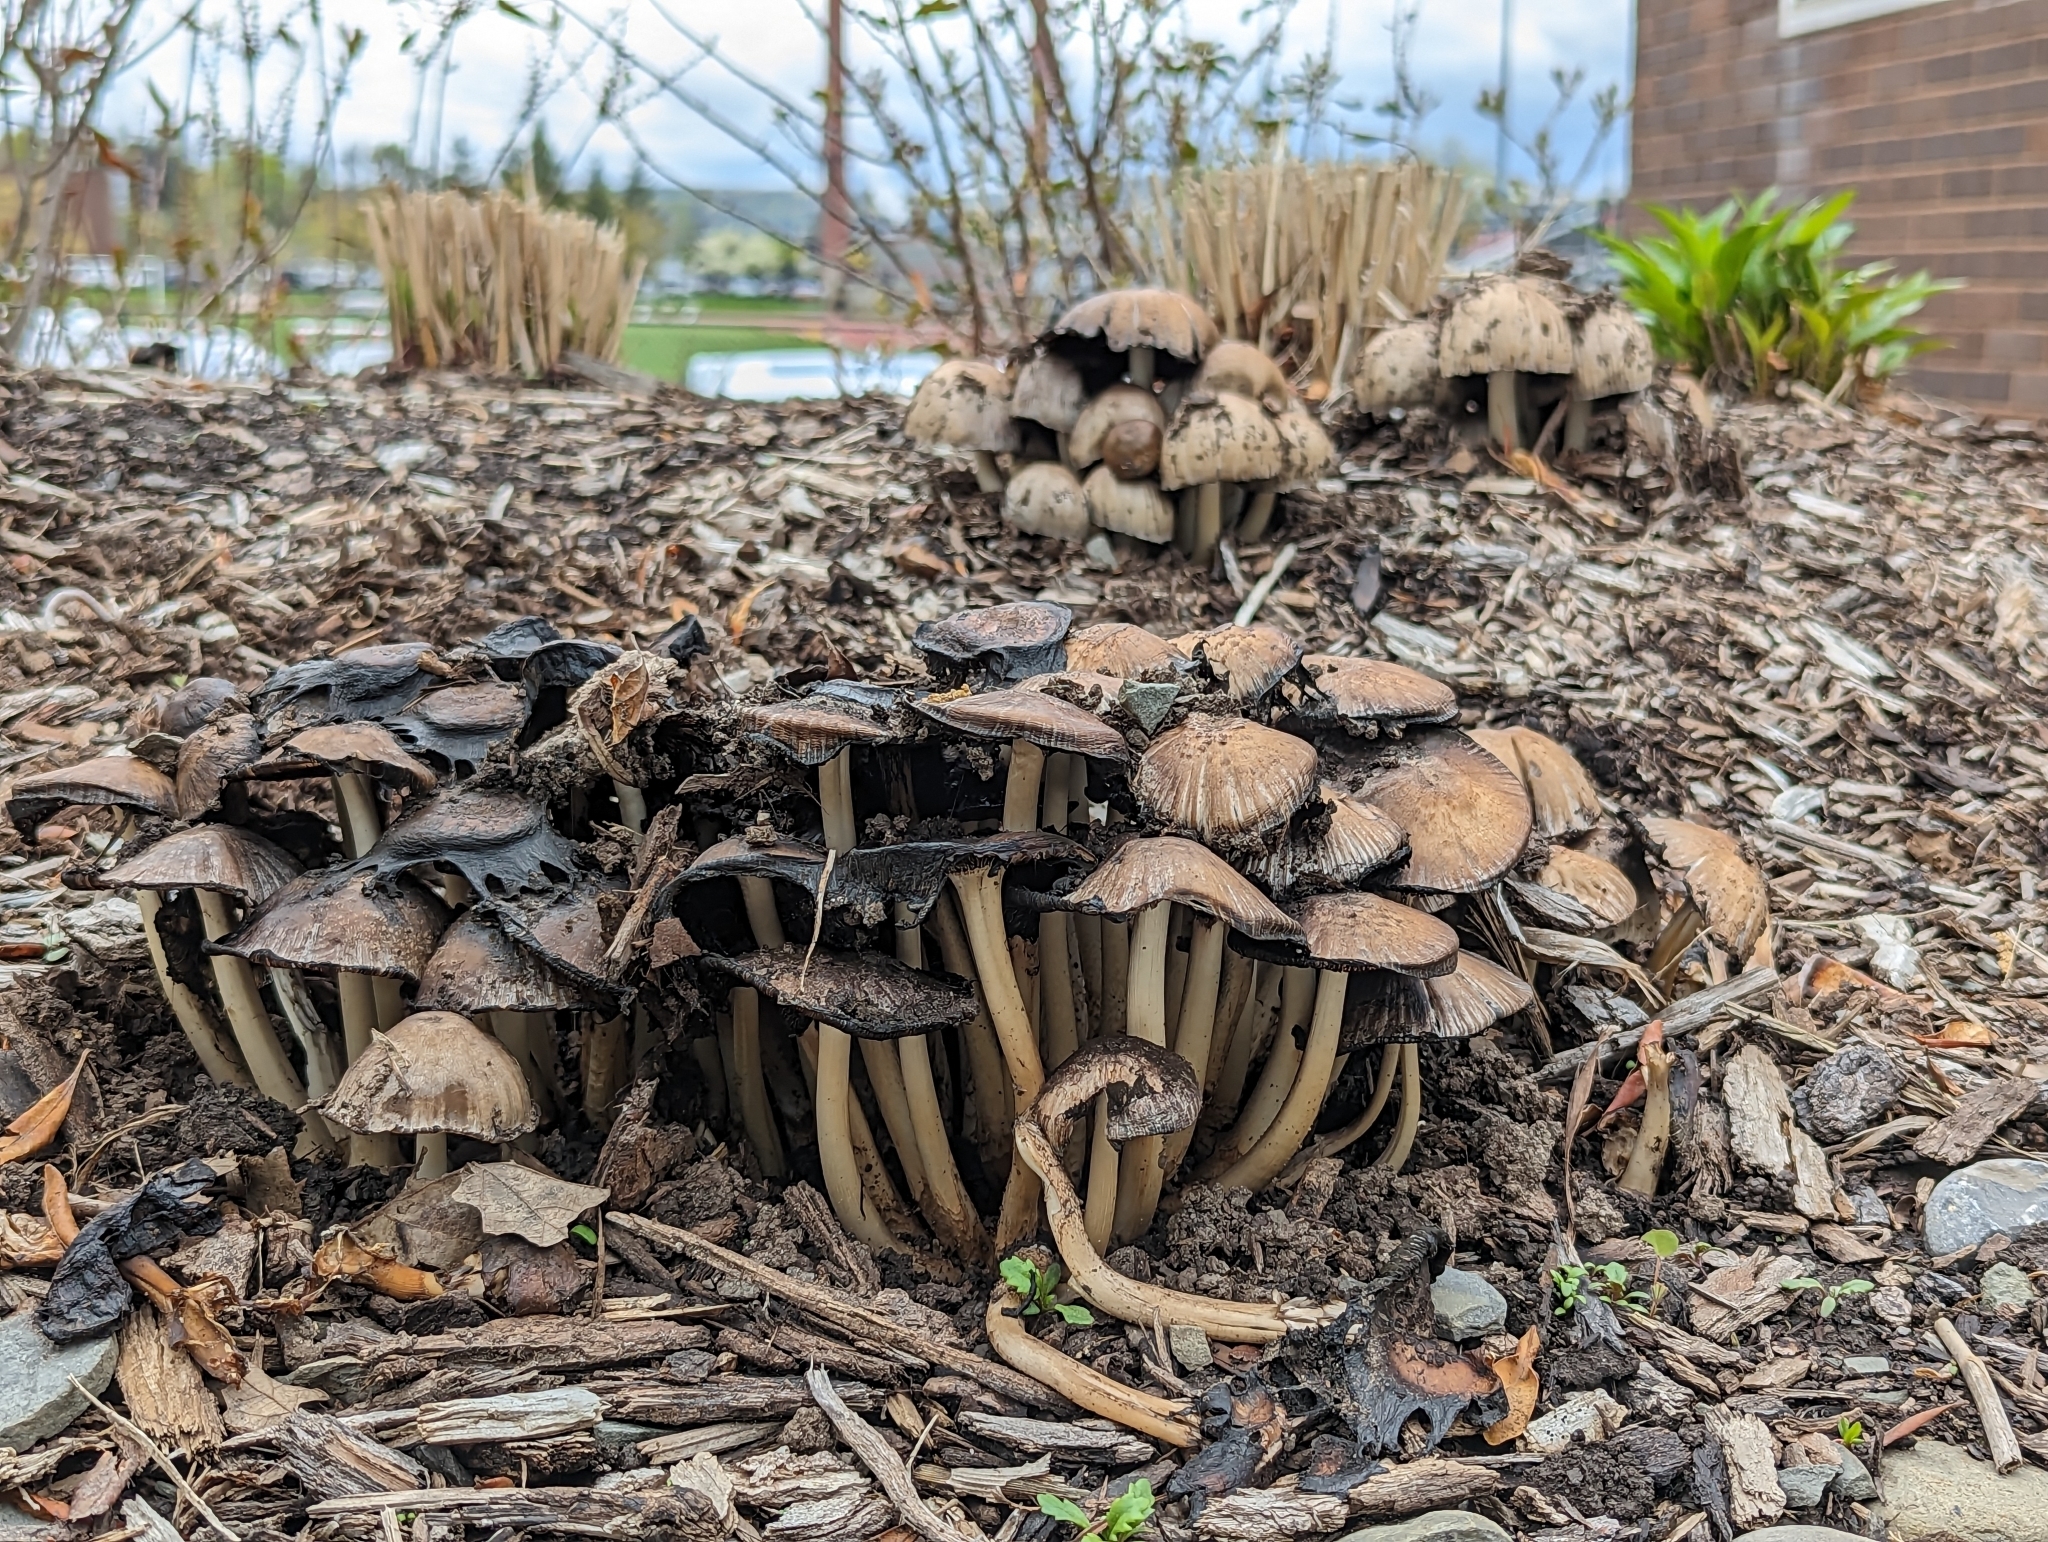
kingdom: Fungi
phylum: Basidiomycota
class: Agaricomycetes
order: Agaricales
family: Psathyrellaceae
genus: Coprinopsis
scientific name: Coprinopsis atramentaria
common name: Common ink-cap
